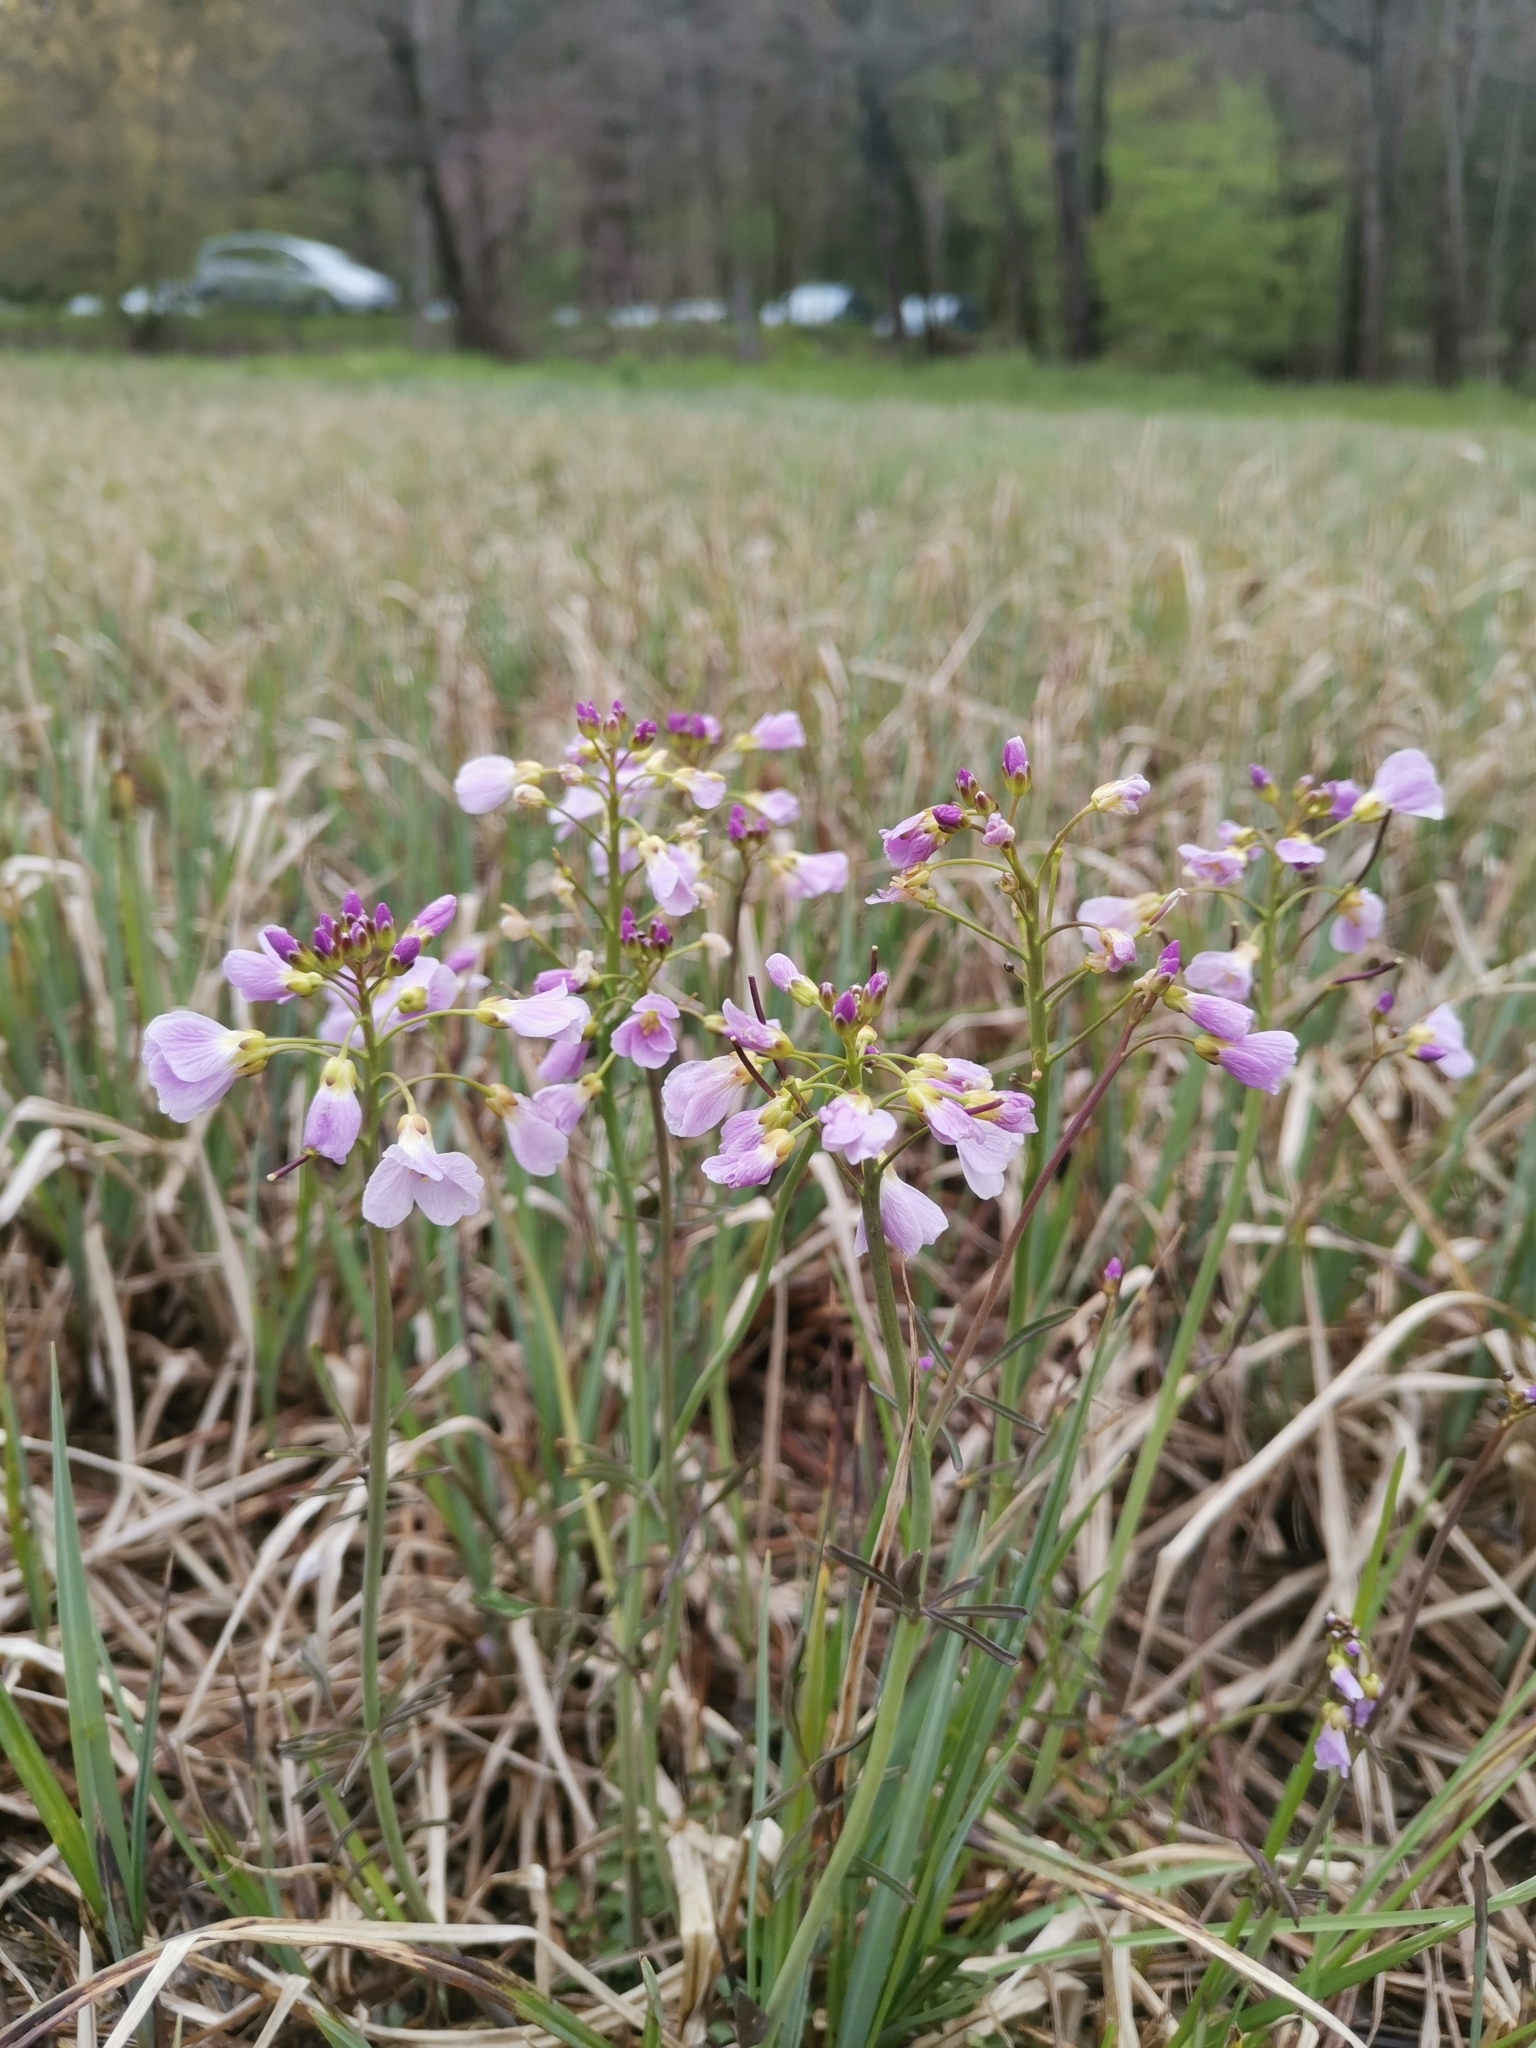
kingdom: Plantae
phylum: Tracheophyta
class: Magnoliopsida
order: Brassicales
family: Brassicaceae
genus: Cardamine
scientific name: Cardamine pratensis
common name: Cuckoo flower
